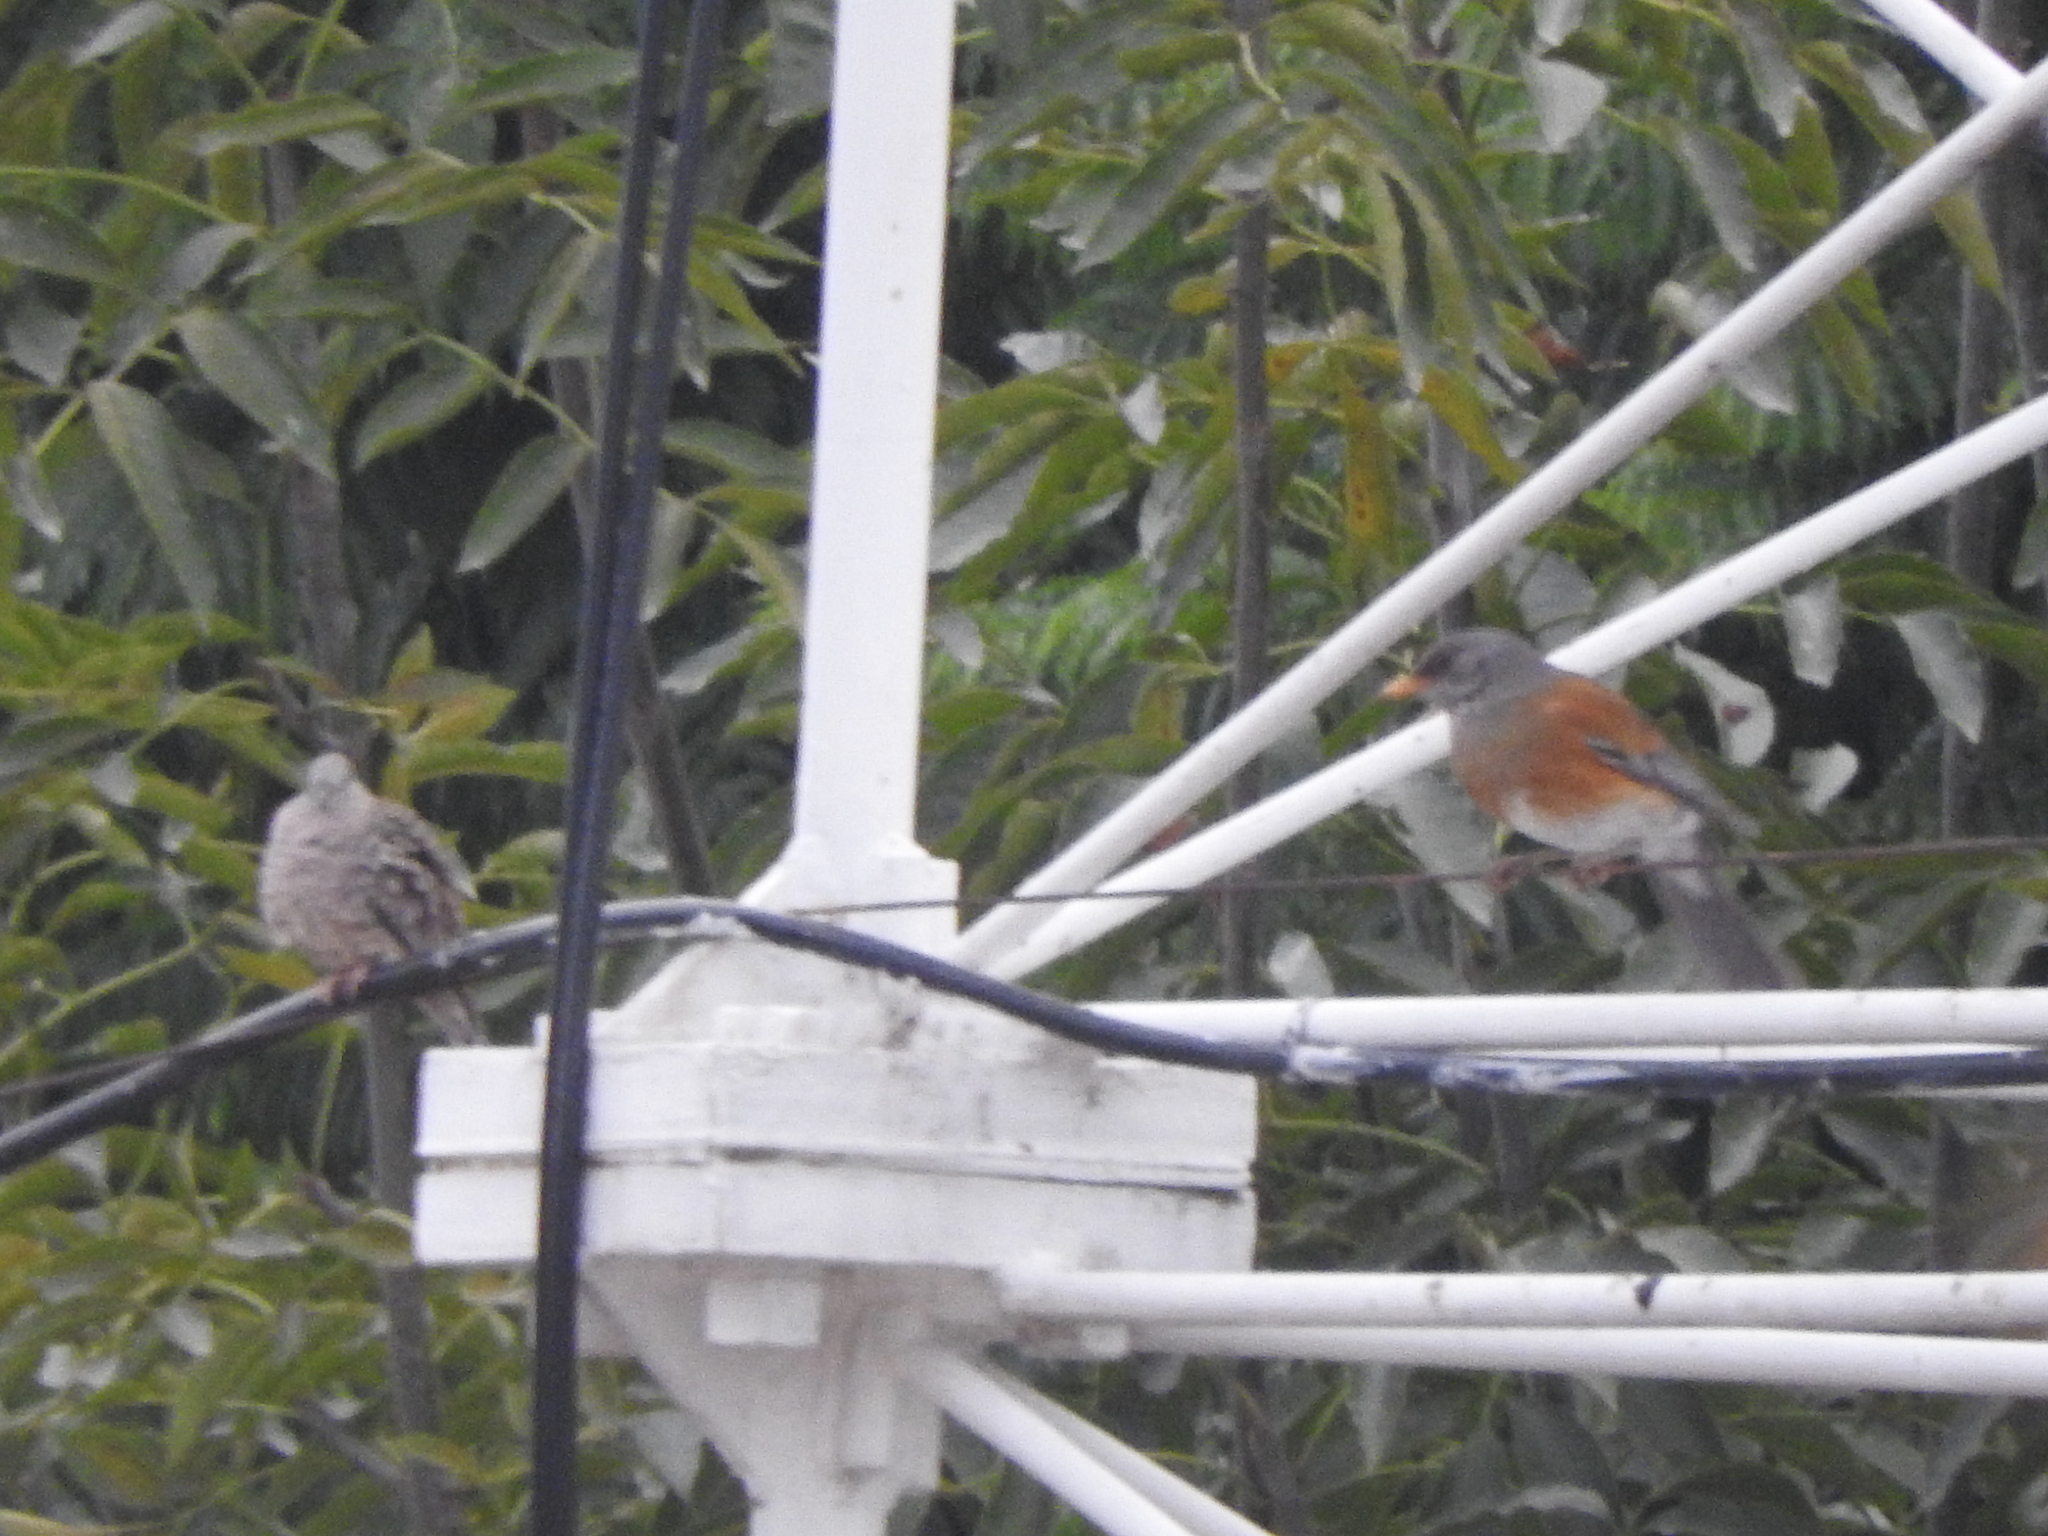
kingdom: Animalia
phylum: Chordata
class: Aves
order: Columbiformes
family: Columbidae
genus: Columbina
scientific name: Columbina inca
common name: Inca dove
